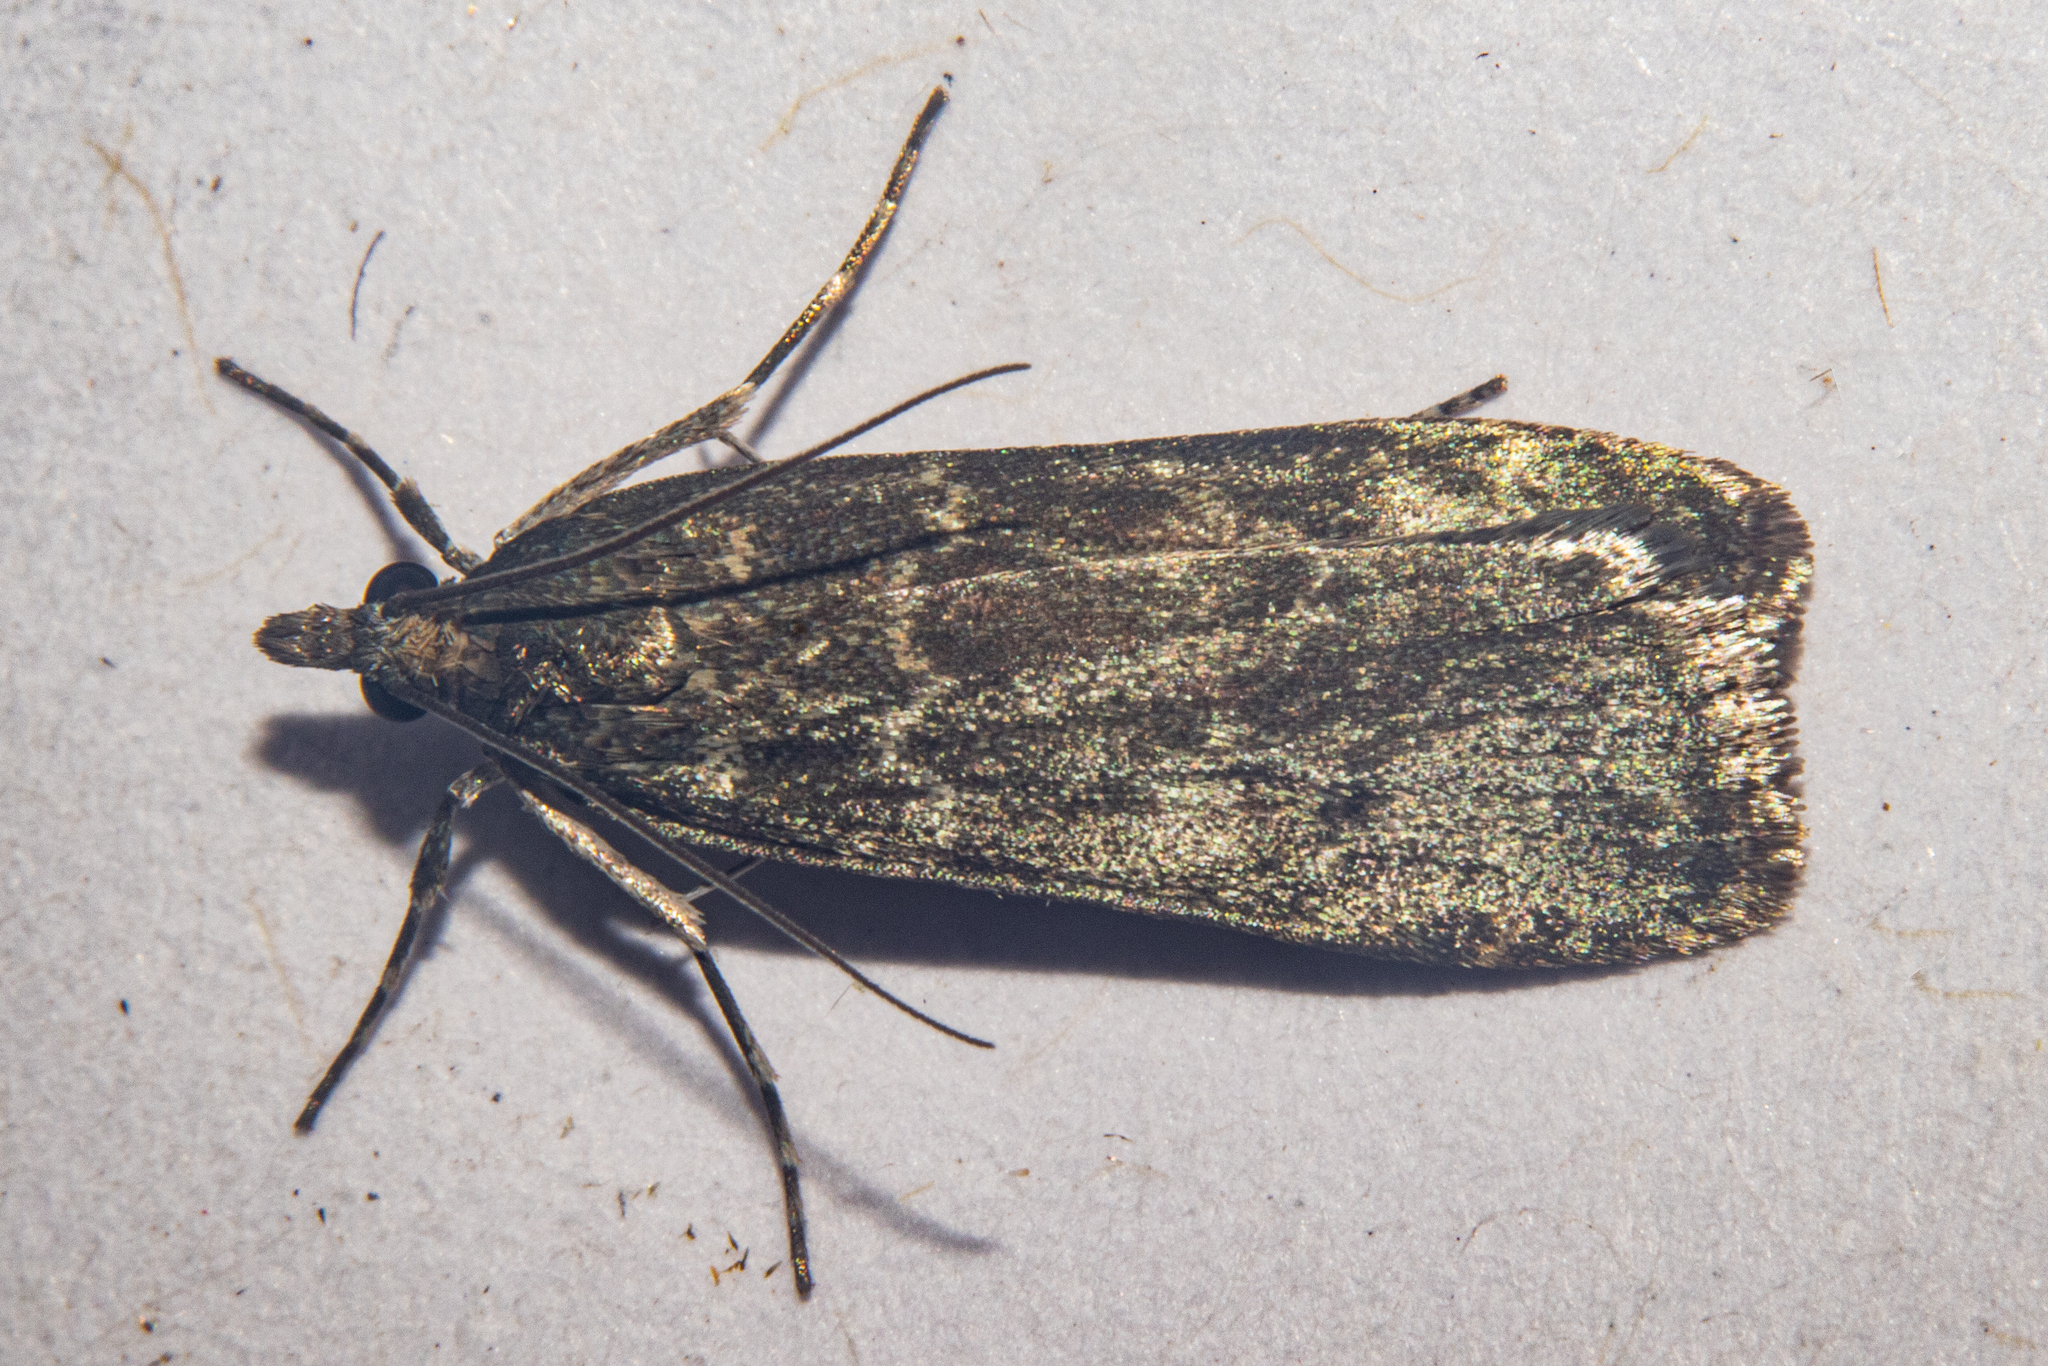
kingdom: Animalia
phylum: Arthropoda
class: Insecta
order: Lepidoptera
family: Crambidae
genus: Eudonia
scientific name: Eudonia cataxesta
